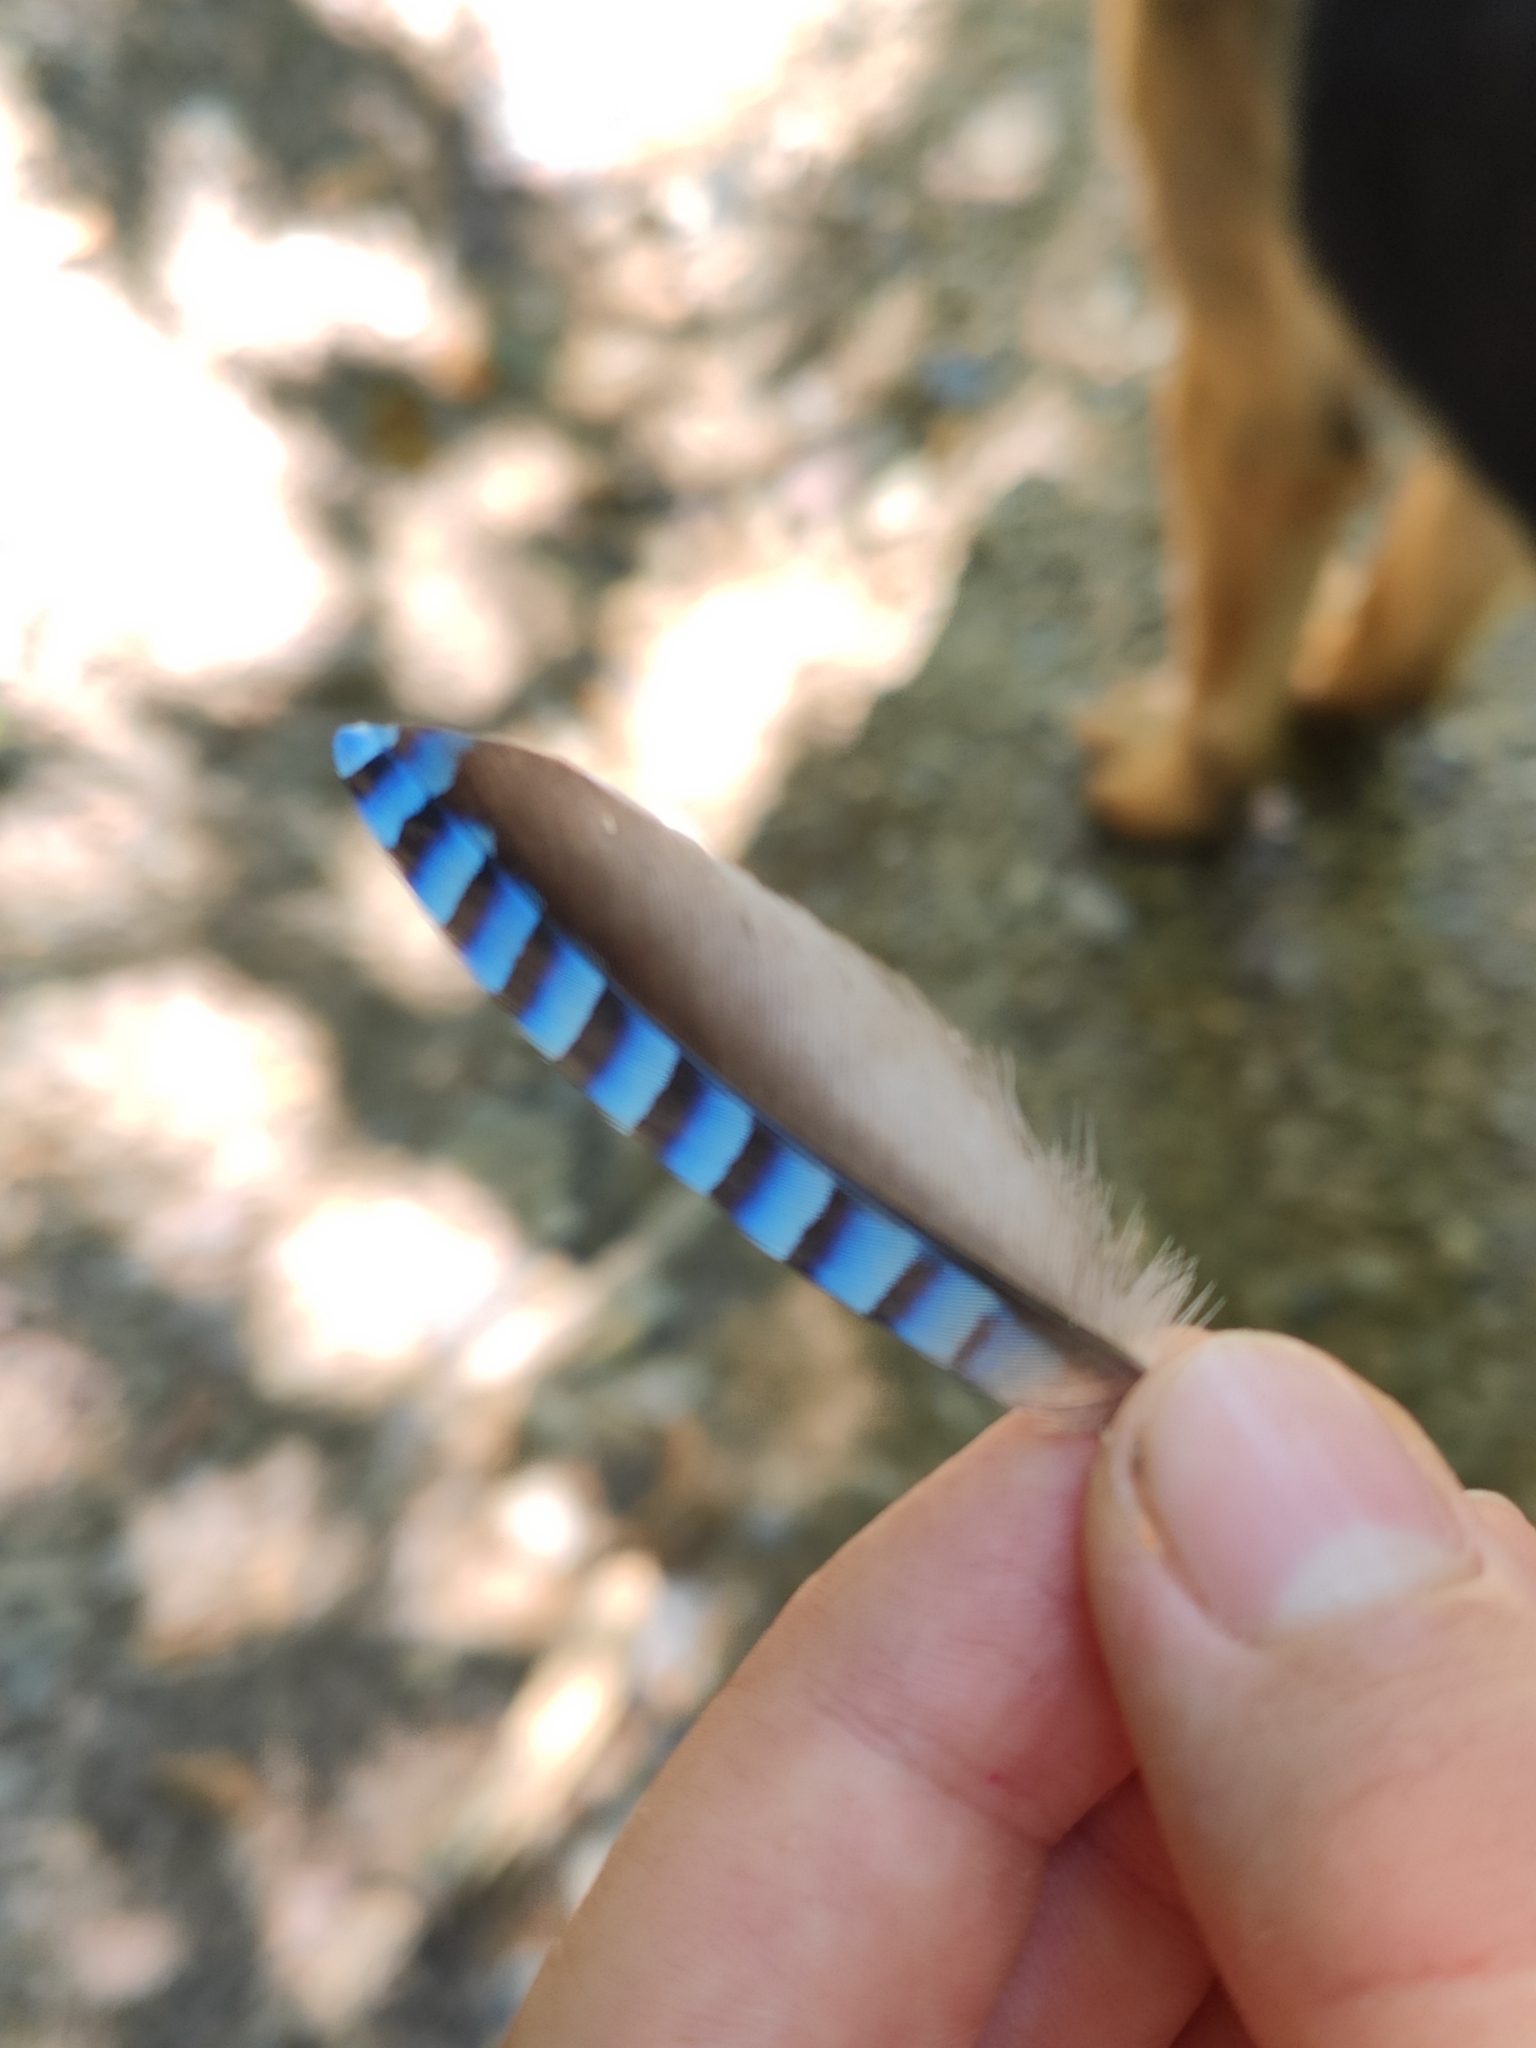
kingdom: Animalia
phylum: Chordata
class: Aves
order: Passeriformes
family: Corvidae
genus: Garrulus
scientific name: Garrulus glandarius
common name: Eurasian jay
